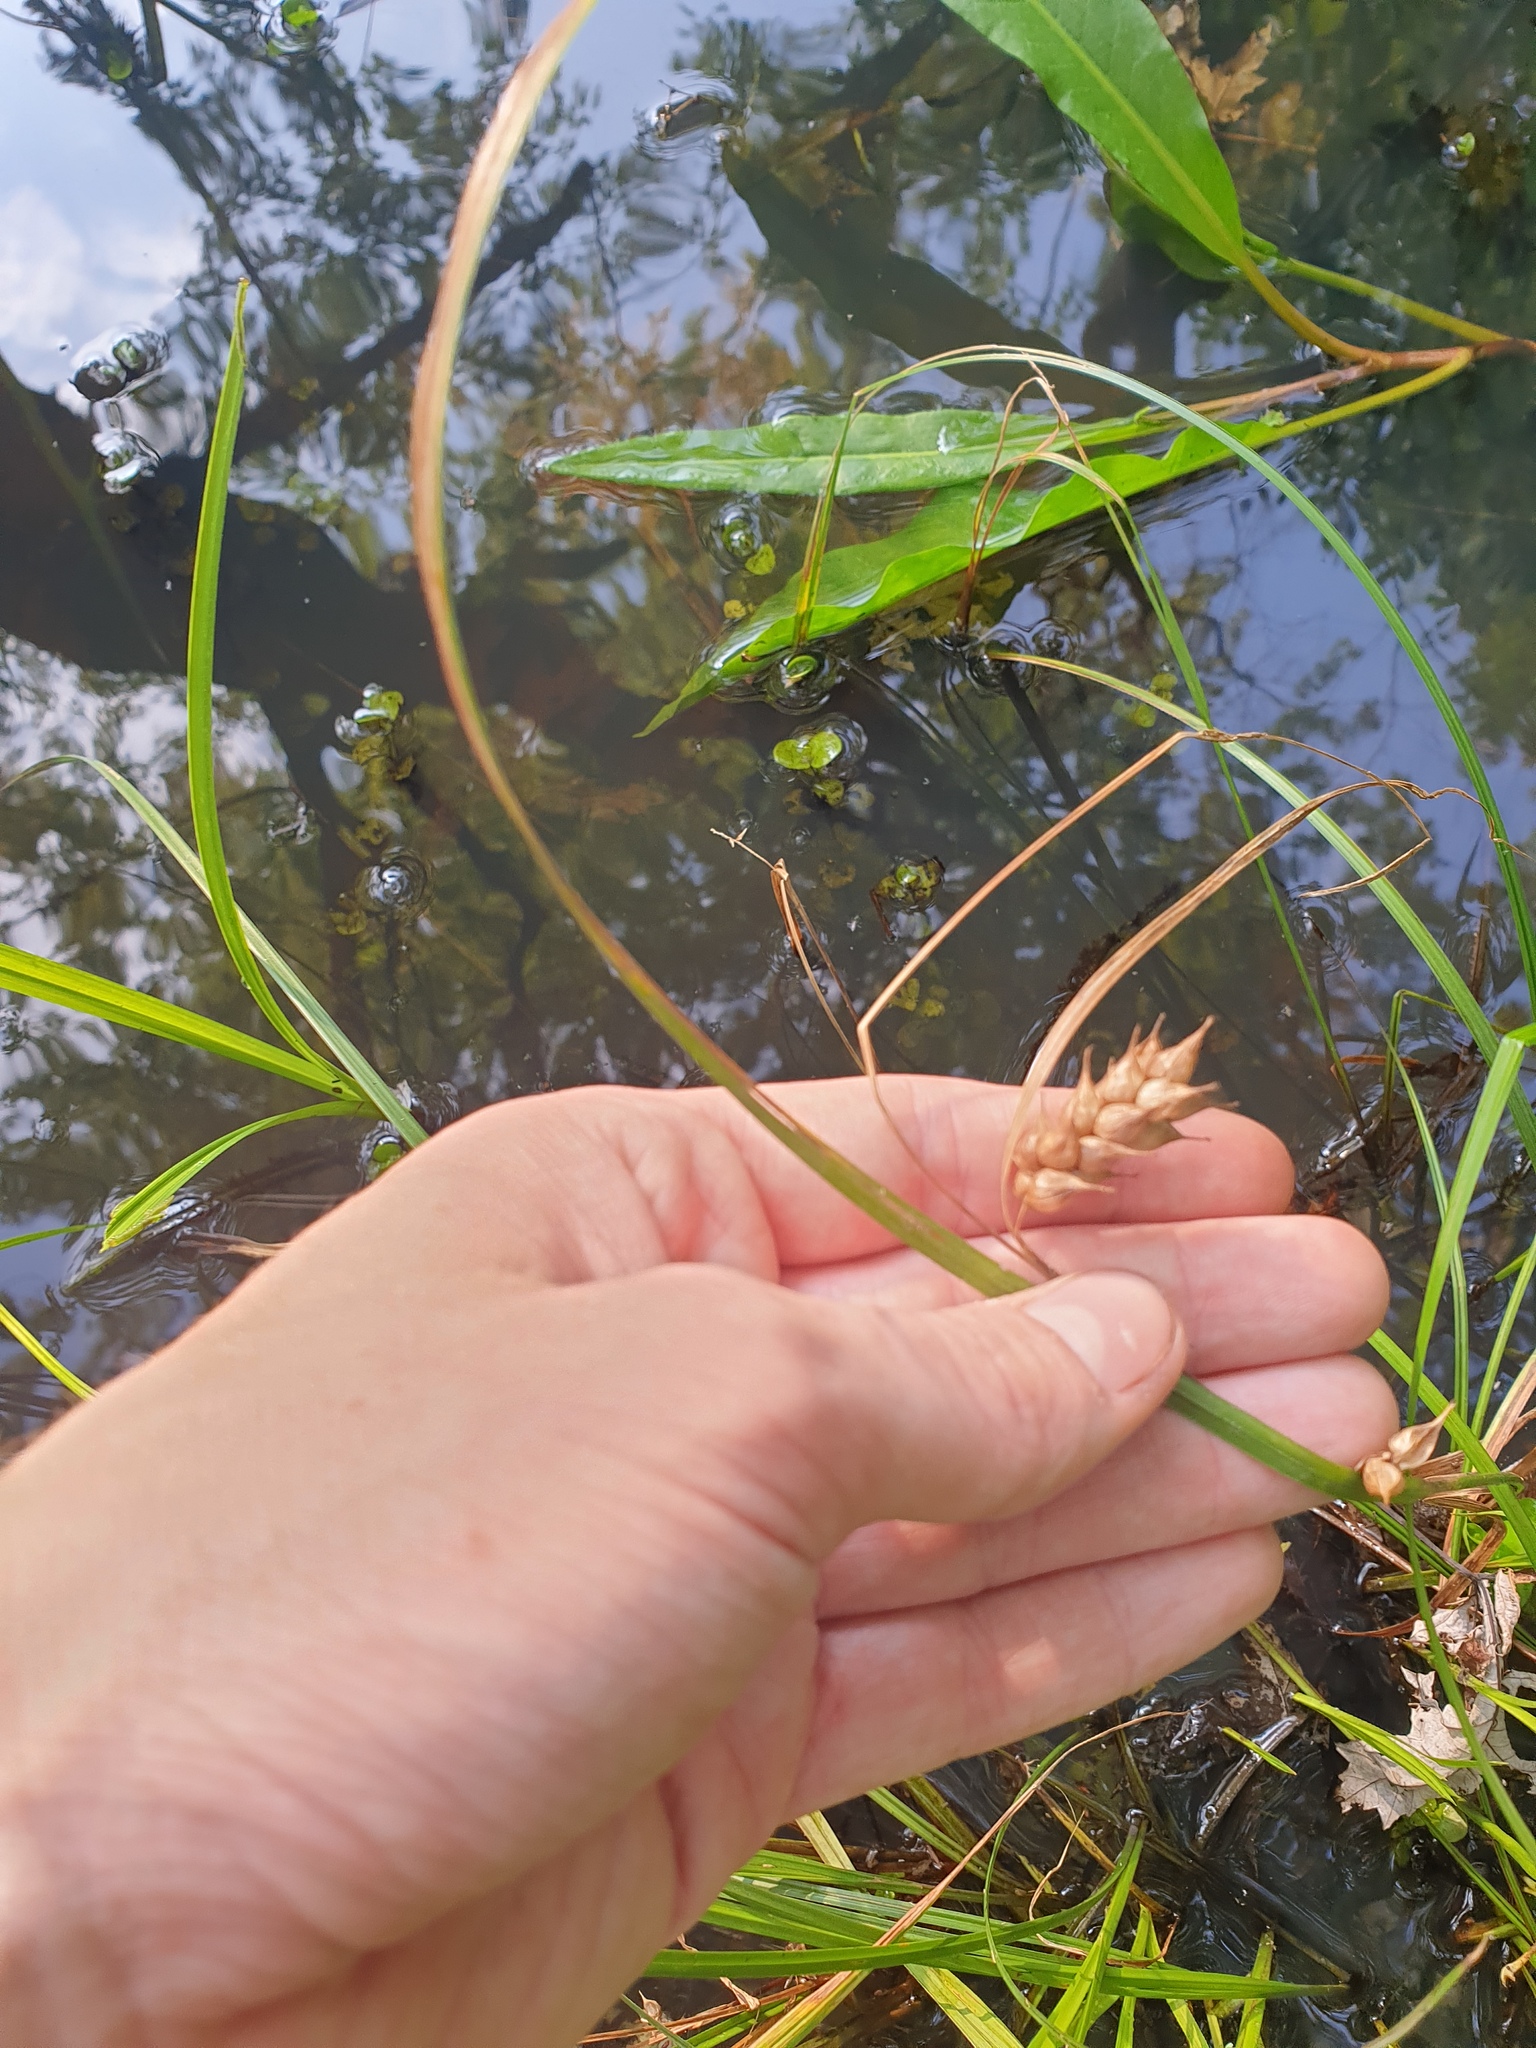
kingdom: Plantae
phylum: Tracheophyta
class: Liliopsida
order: Poales
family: Cyperaceae
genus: Carex
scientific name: Carex tuckermanii
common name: Tuckerman's sedge
